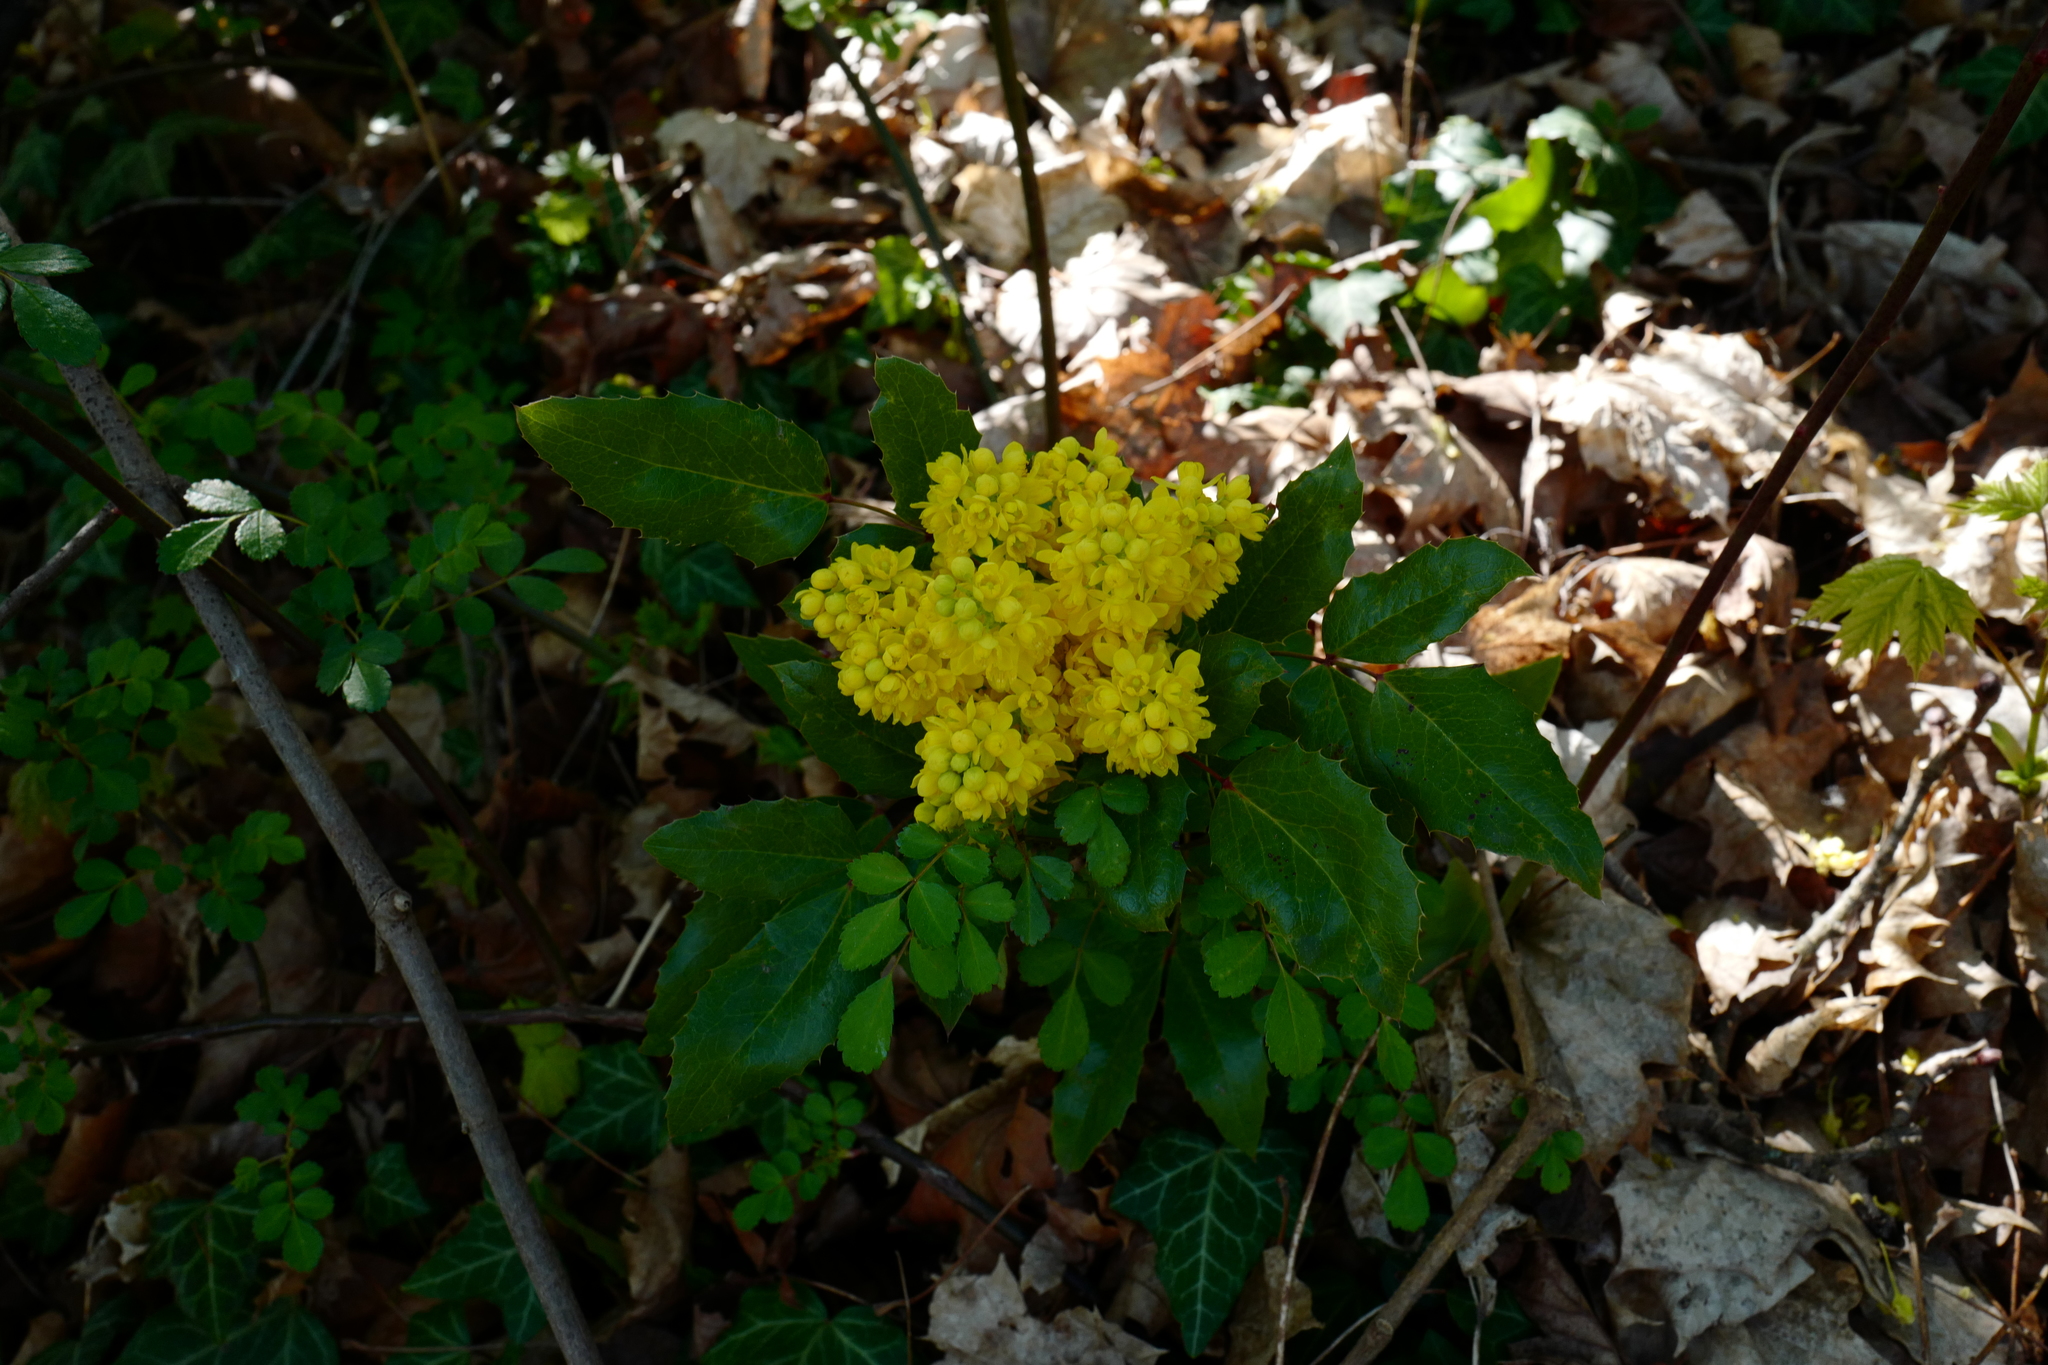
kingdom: Plantae
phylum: Tracheophyta
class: Magnoliopsida
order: Ranunculales
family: Berberidaceae
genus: Mahonia
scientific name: Mahonia aquifolium
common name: Oregon-grape
